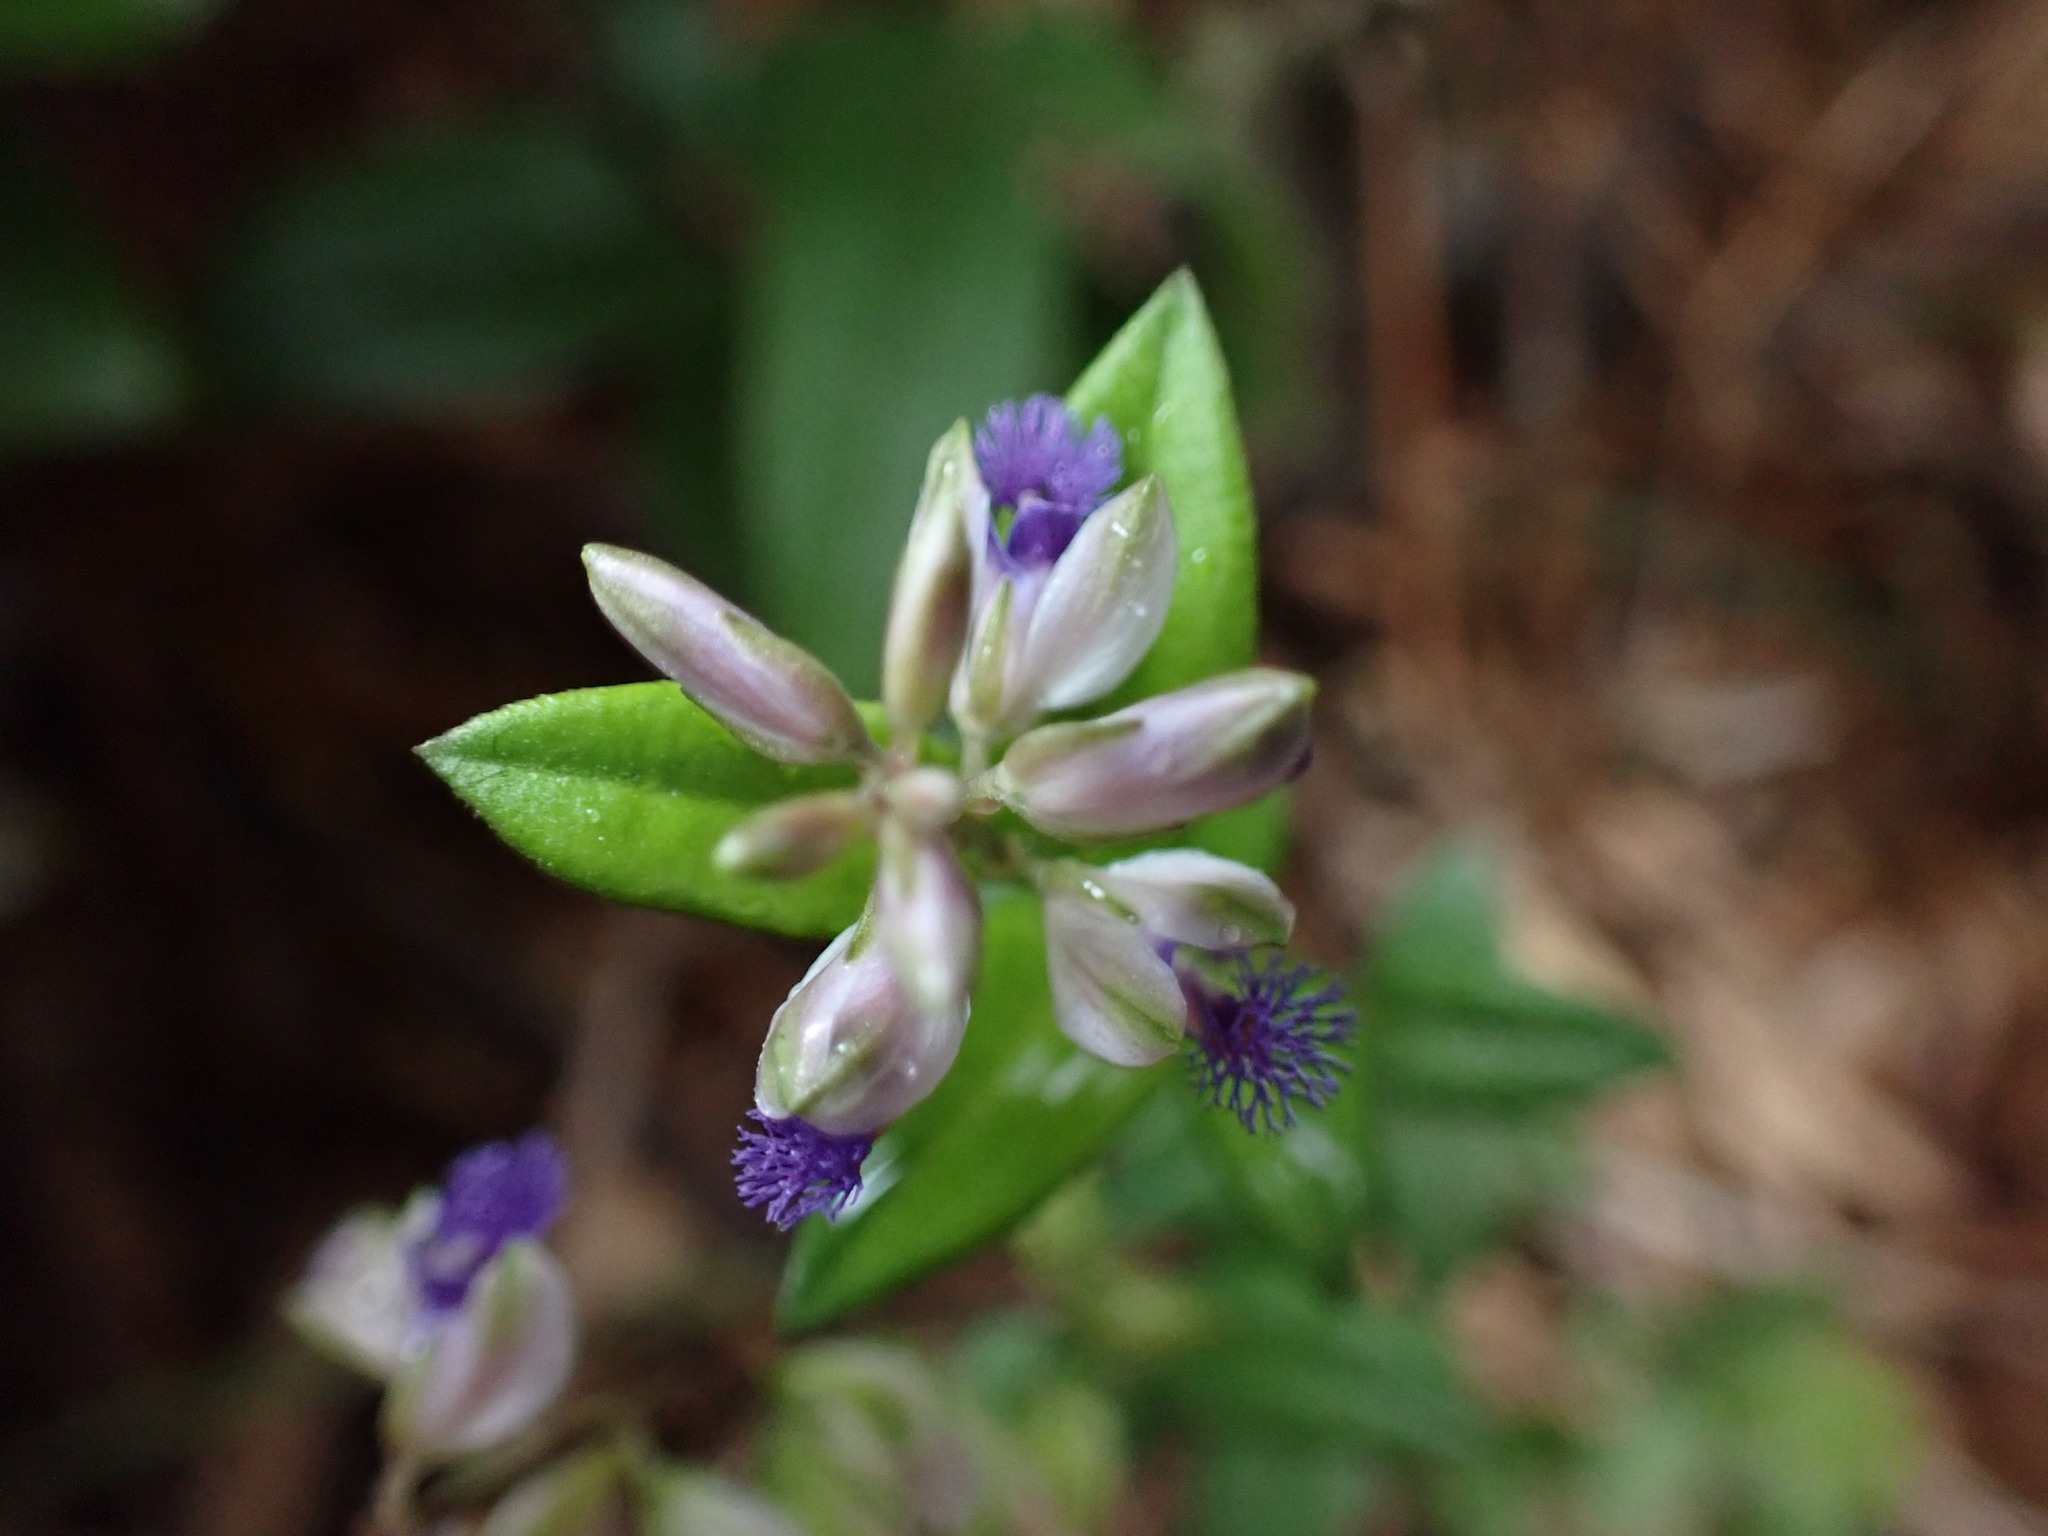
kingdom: Plantae
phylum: Tracheophyta
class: Magnoliopsida
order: Fabales
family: Polygalaceae
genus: Polygala
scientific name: Polygala hongkongensis
